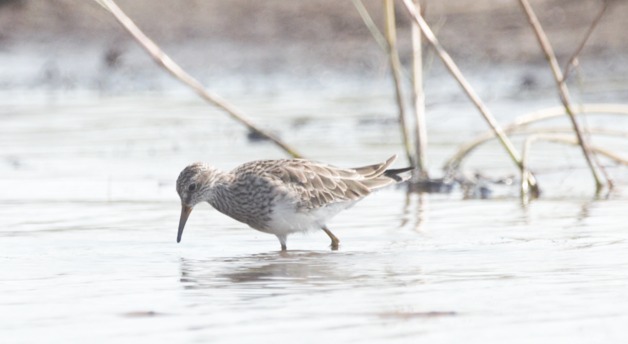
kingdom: Animalia
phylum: Chordata
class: Aves
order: Charadriiformes
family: Scolopacidae
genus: Calidris
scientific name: Calidris melanotos
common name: Pectoral sandpiper
